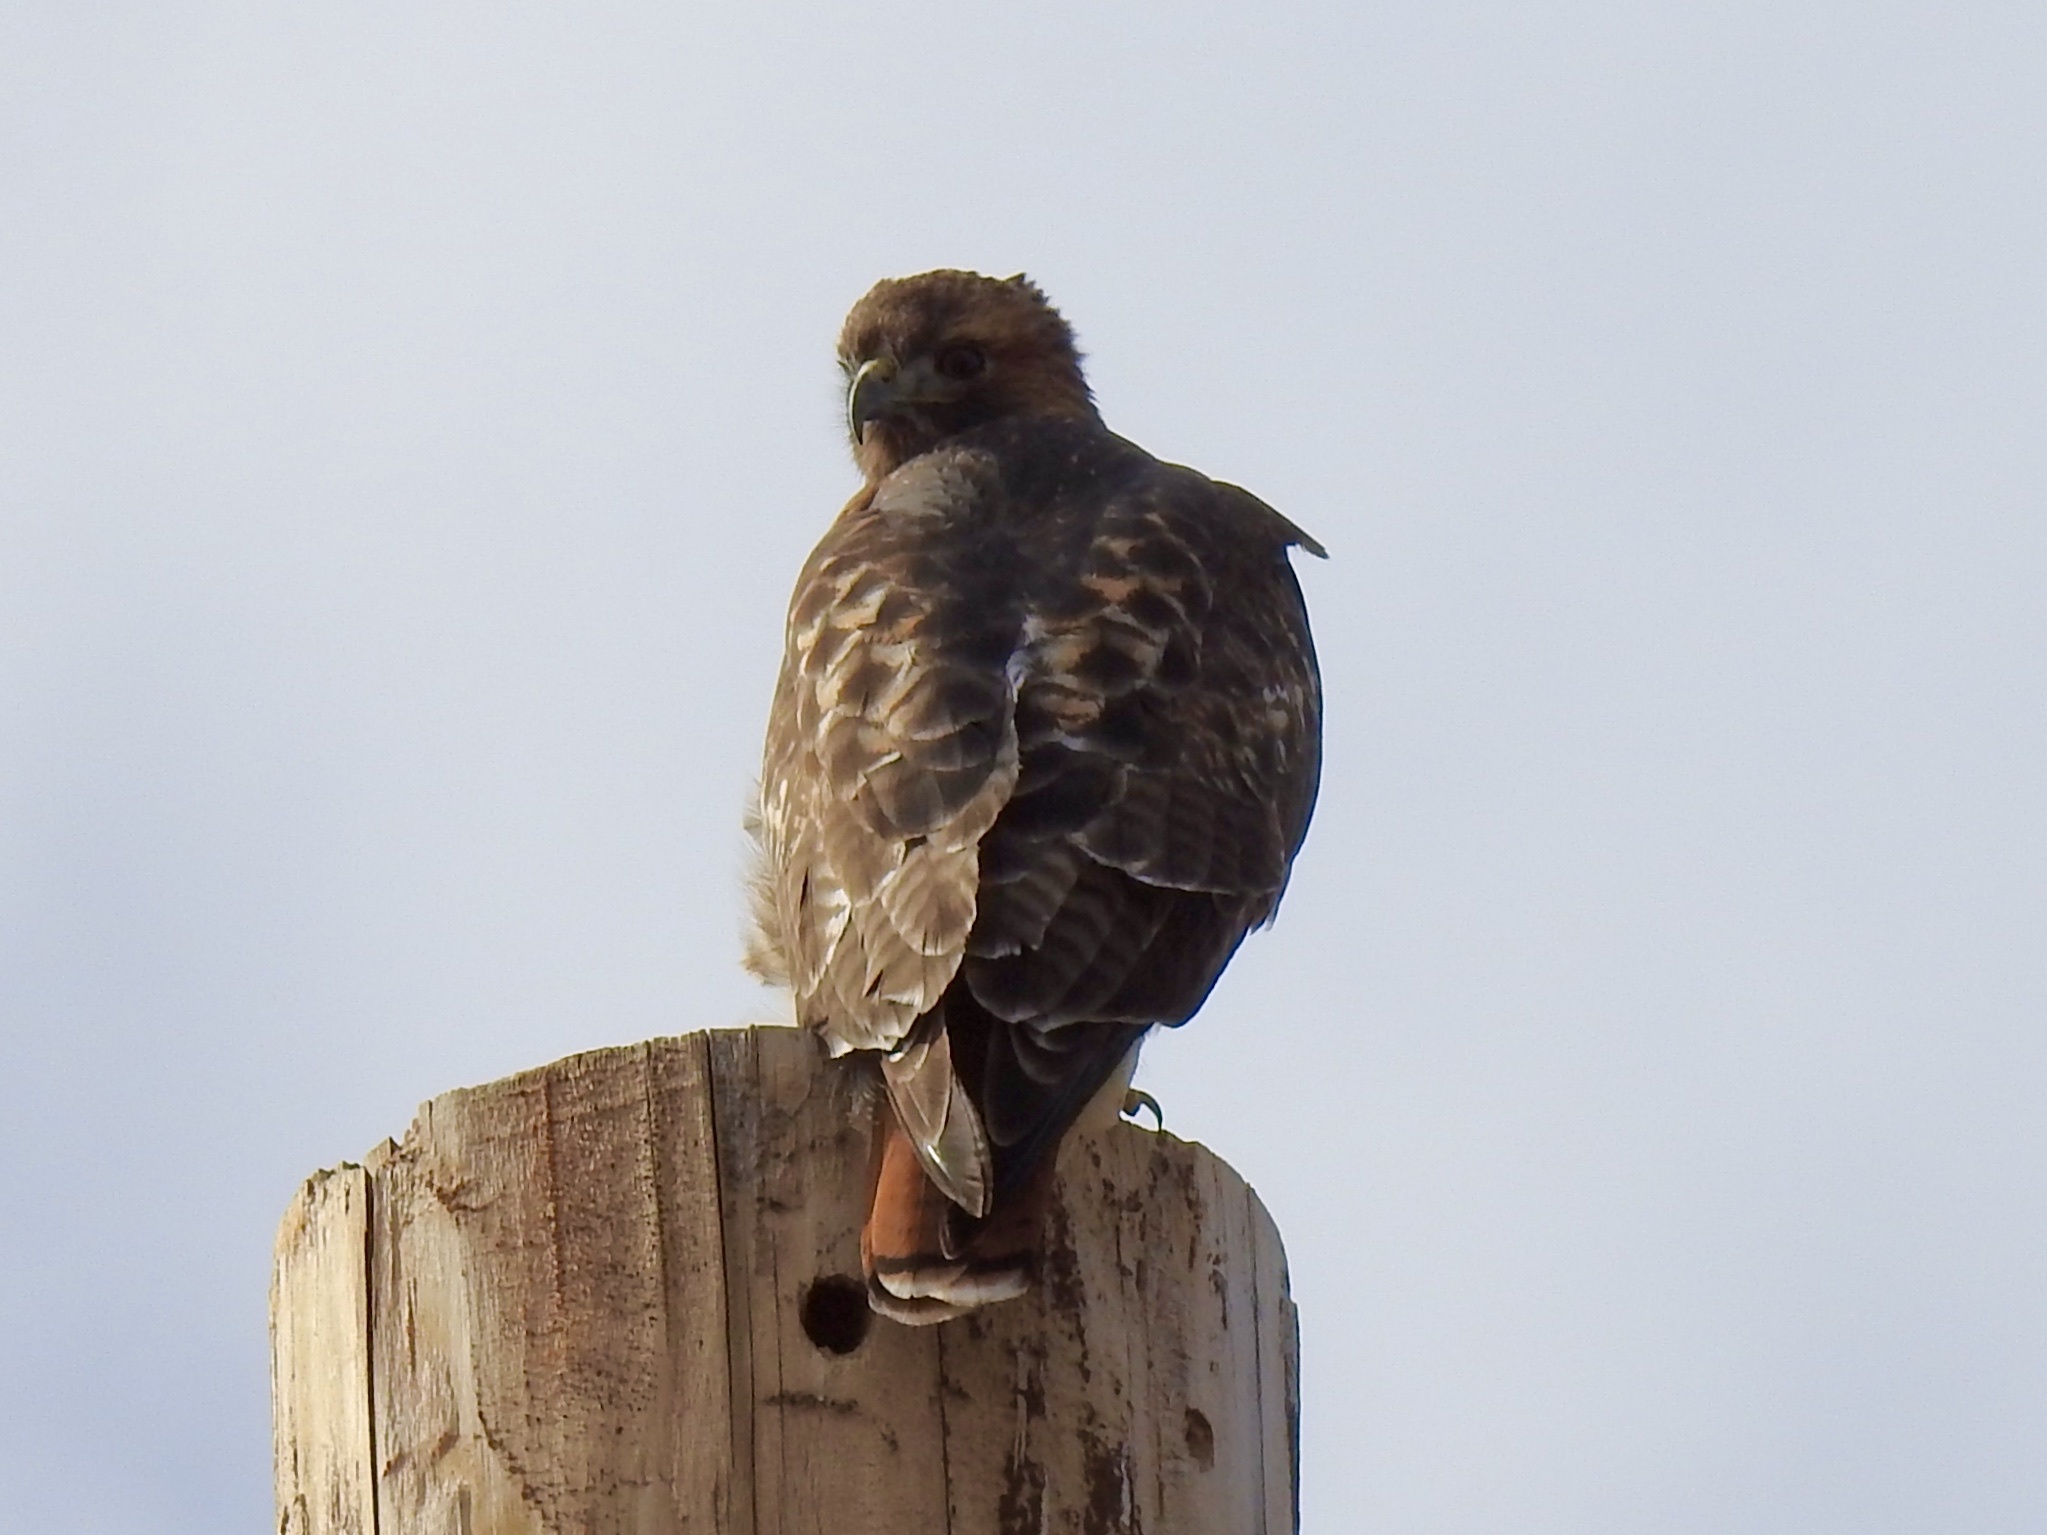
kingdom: Animalia
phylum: Chordata
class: Aves
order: Accipitriformes
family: Accipitridae
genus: Buteo
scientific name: Buteo jamaicensis
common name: Red-tailed hawk
